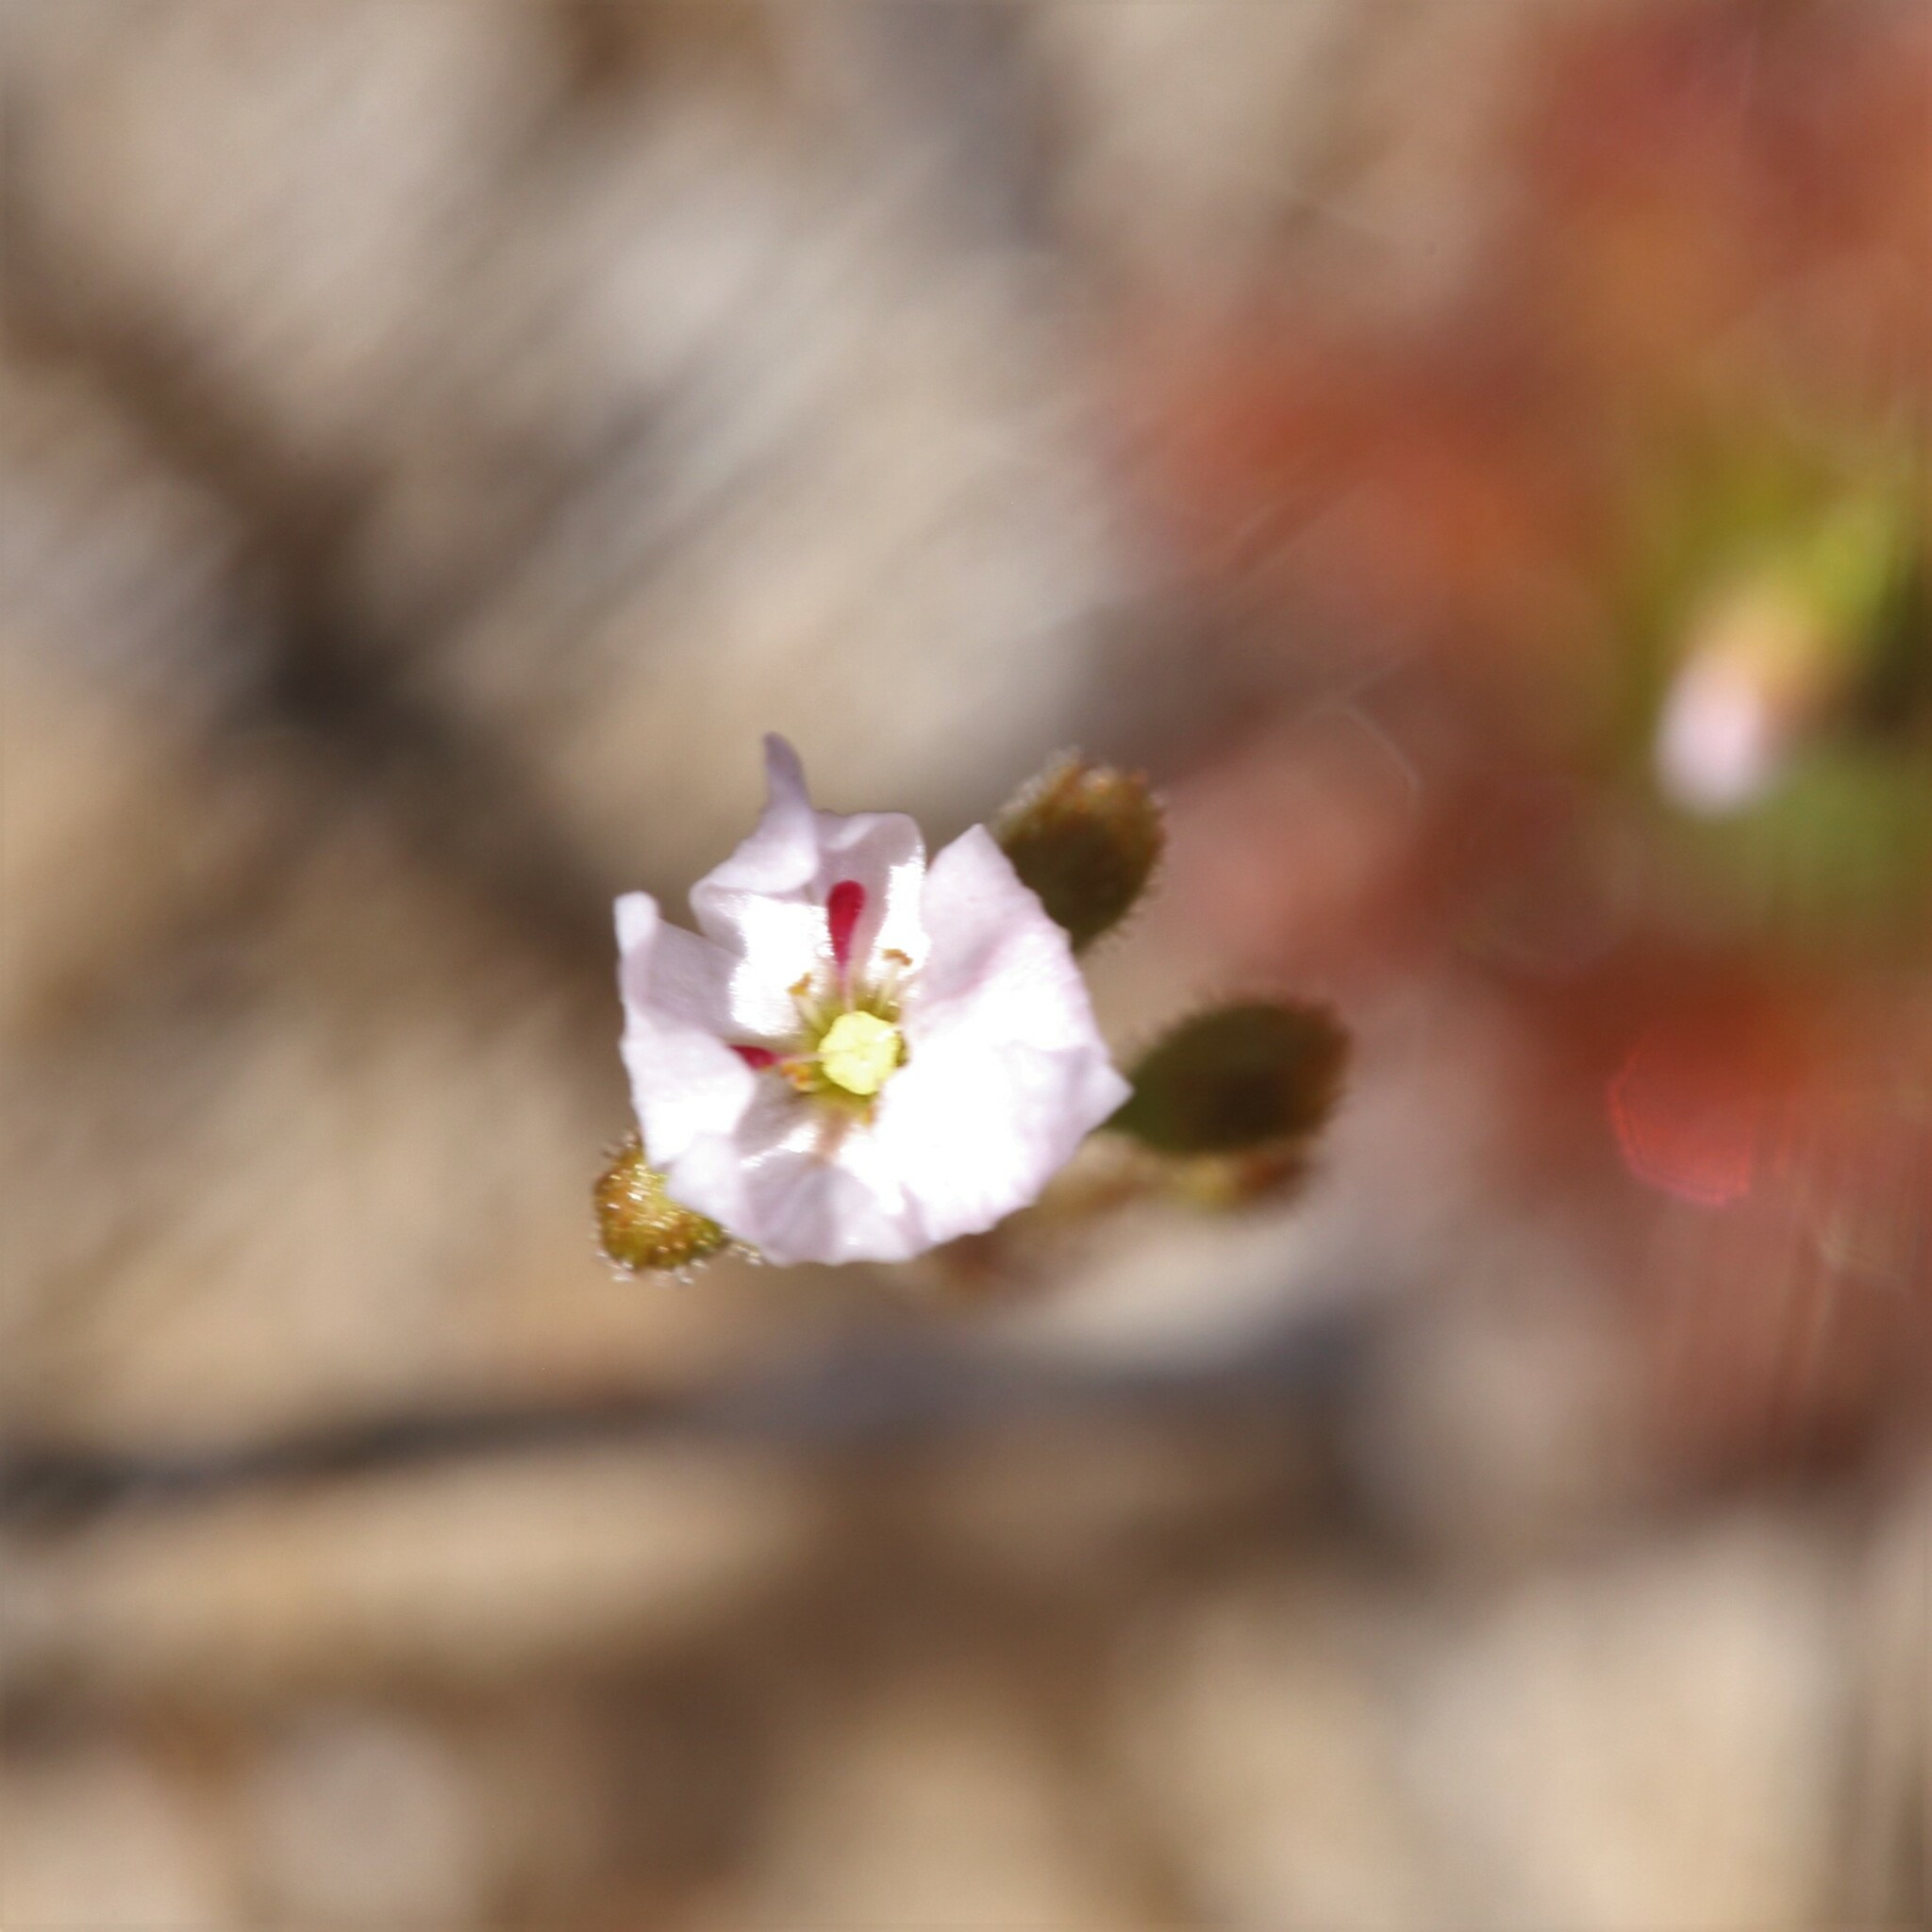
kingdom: Plantae
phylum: Tracheophyta
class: Magnoliopsida
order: Caryophyllales
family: Droseraceae
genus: Drosera
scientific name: Drosera sidjamesii
